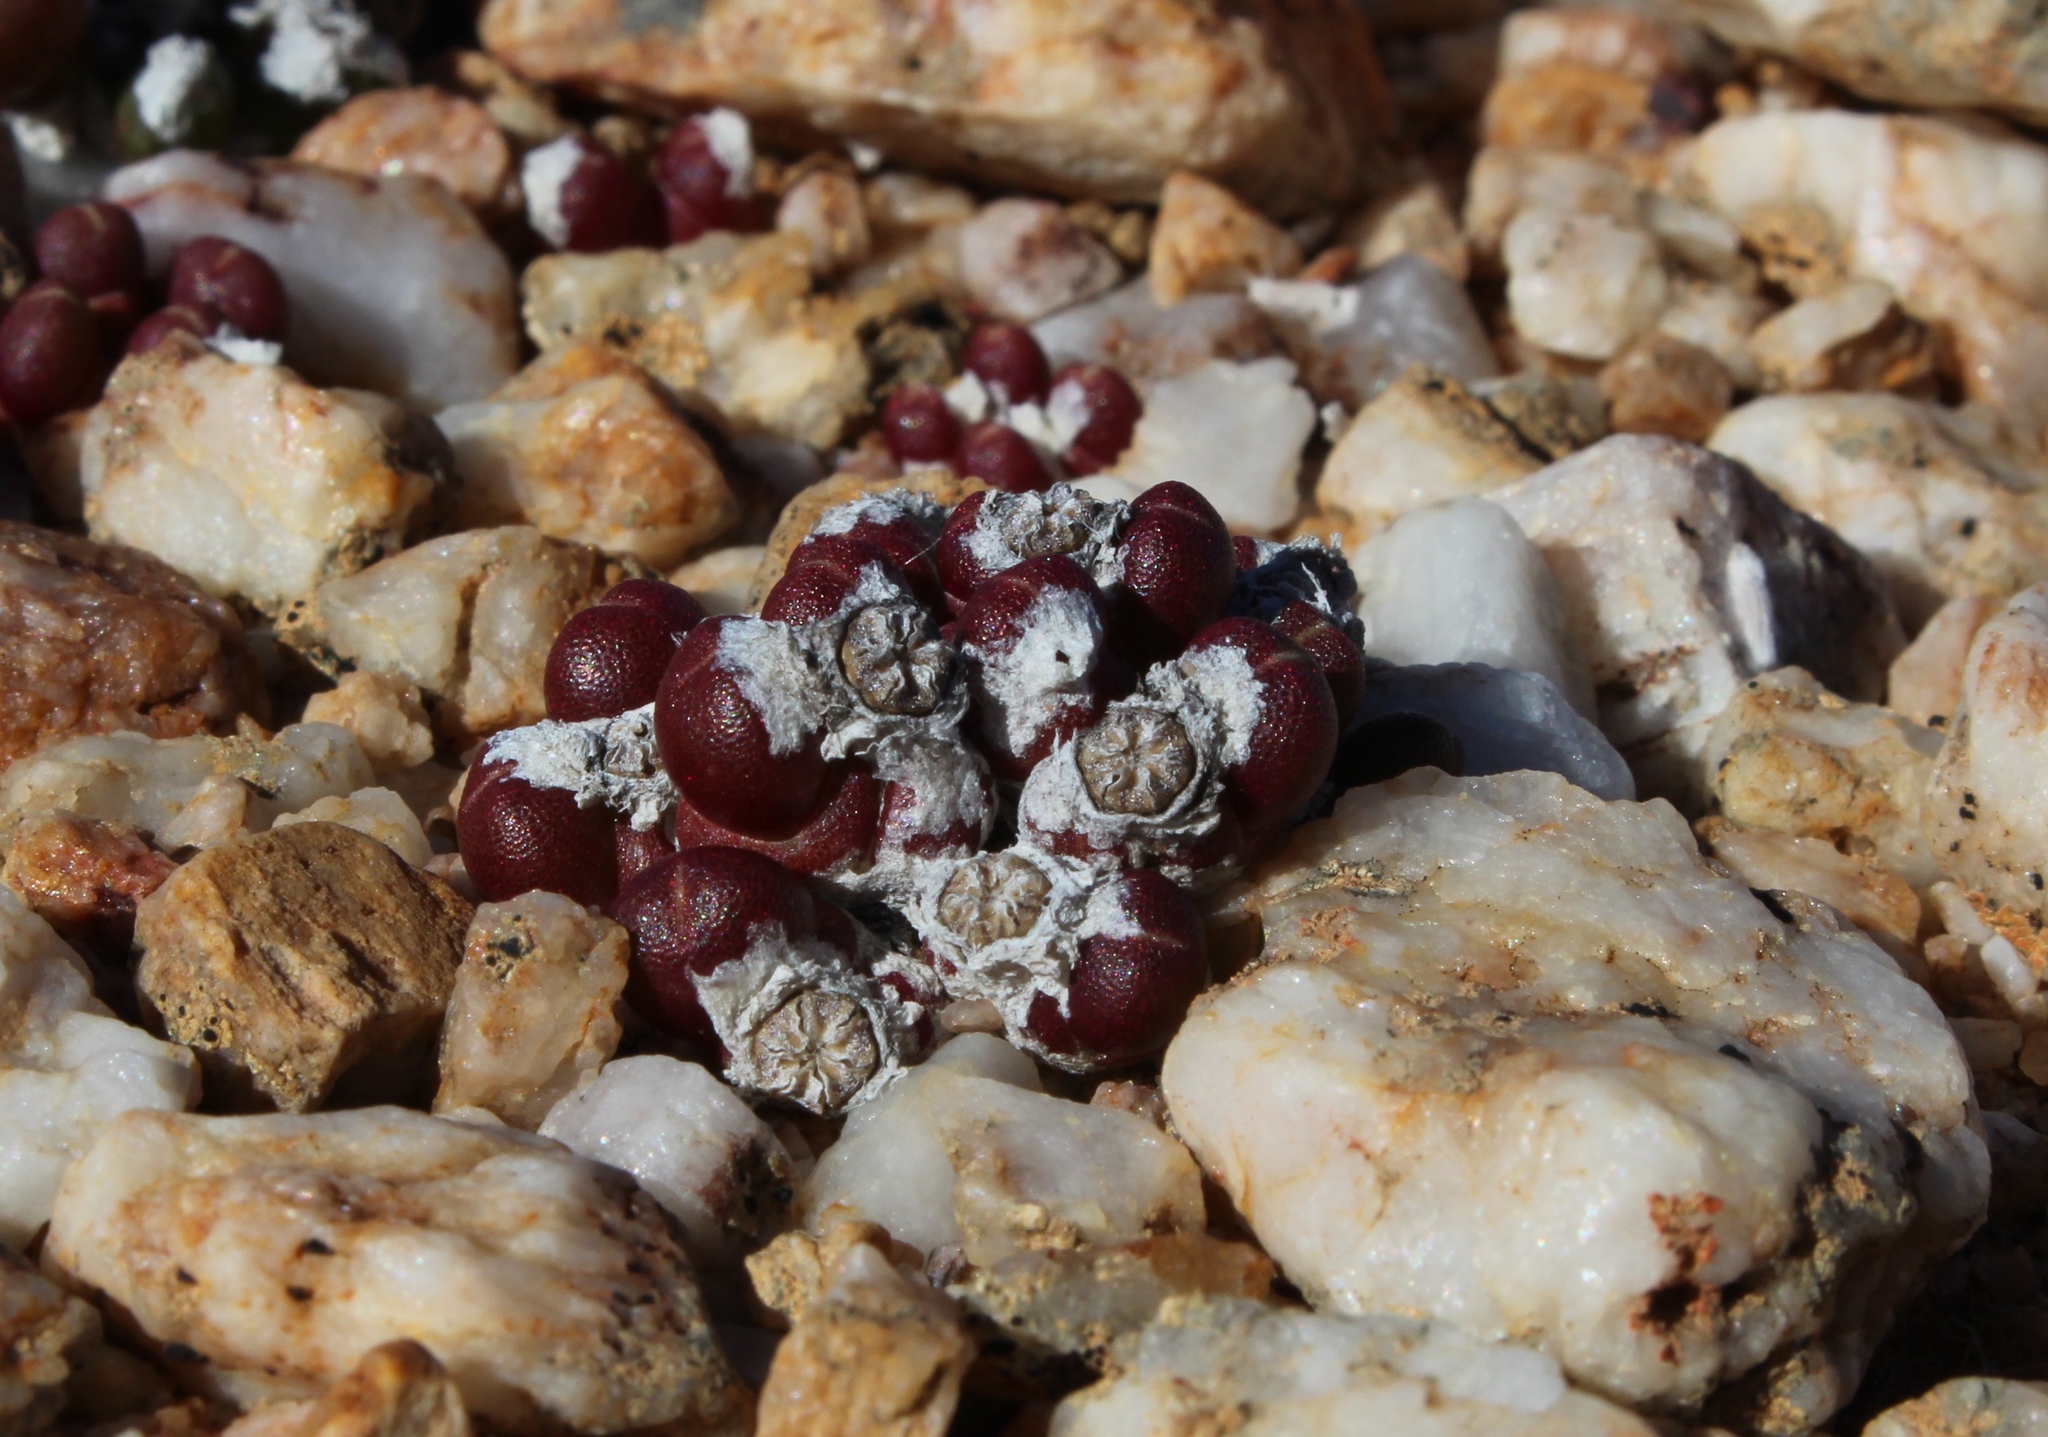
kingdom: Plantae
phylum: Tracheophyta
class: Magnoliopsida
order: Caryophyllales
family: Aizoaceae
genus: Oophytum
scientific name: Oophytum nanum
